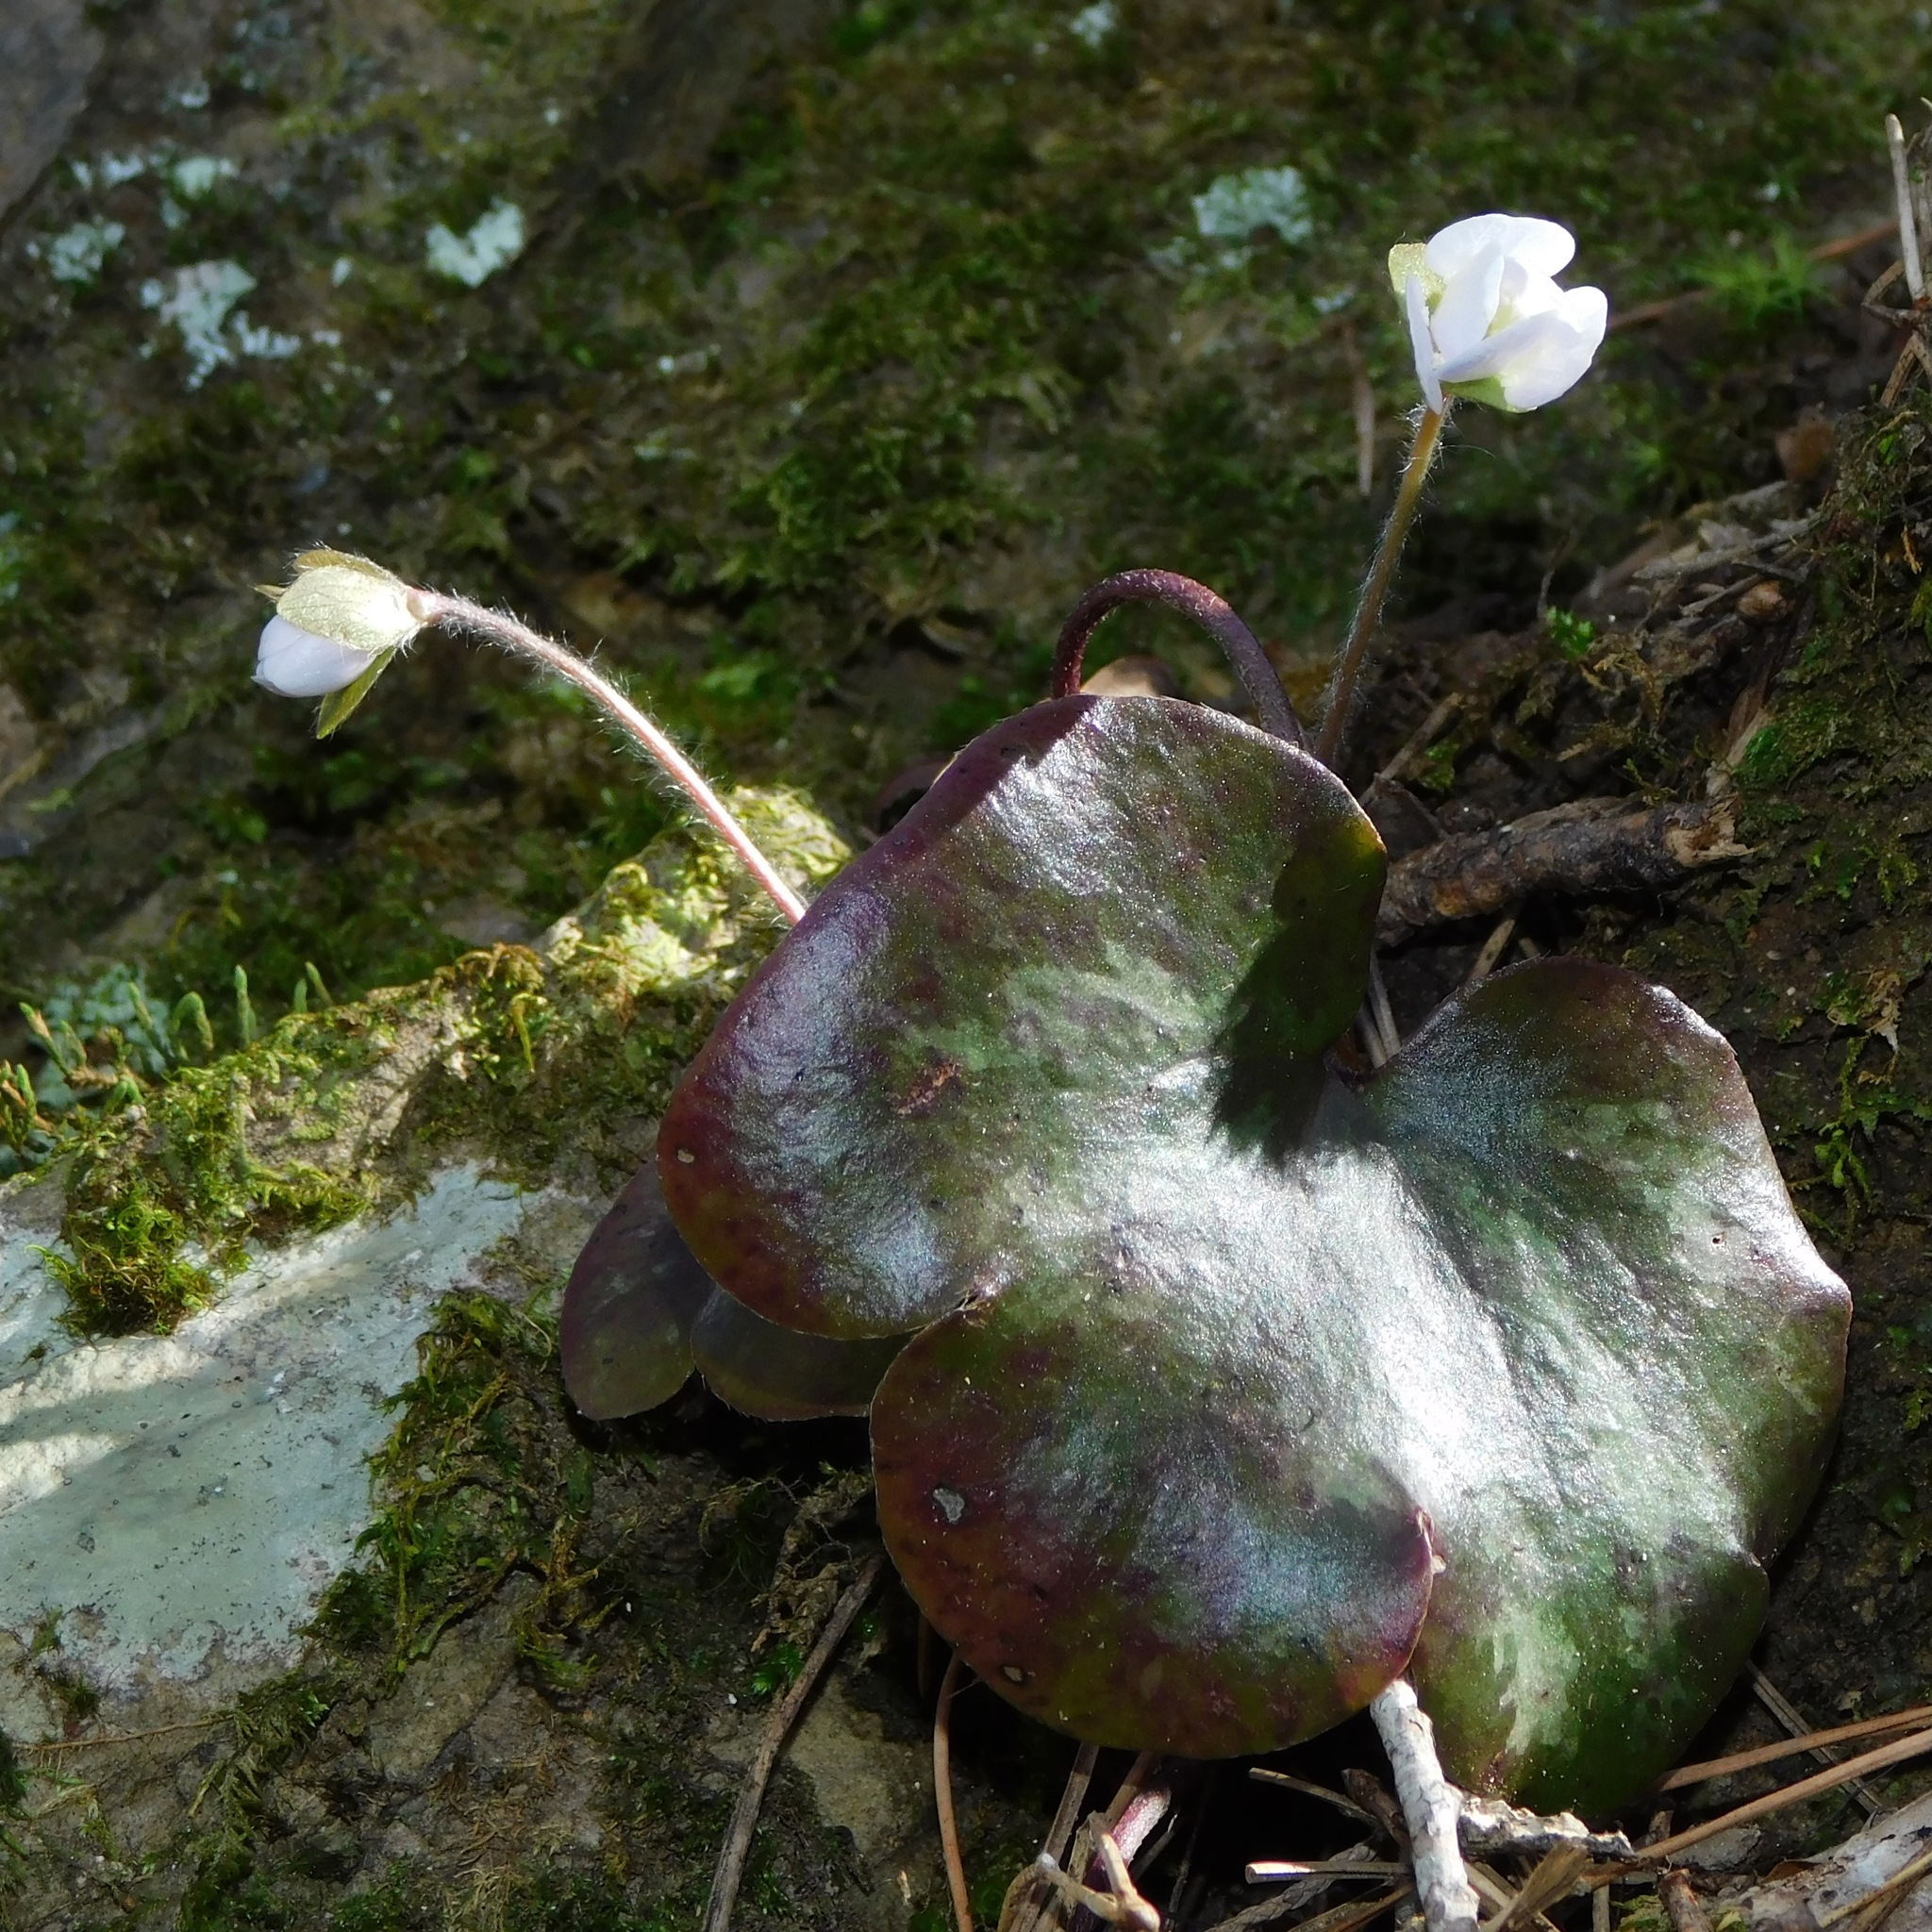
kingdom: Plantae
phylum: Tracheophyta
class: Magnoliopsida
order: Ranunculales
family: Ranunculaceae
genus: Hepatica
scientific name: Hepatica americana
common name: American hepatica
